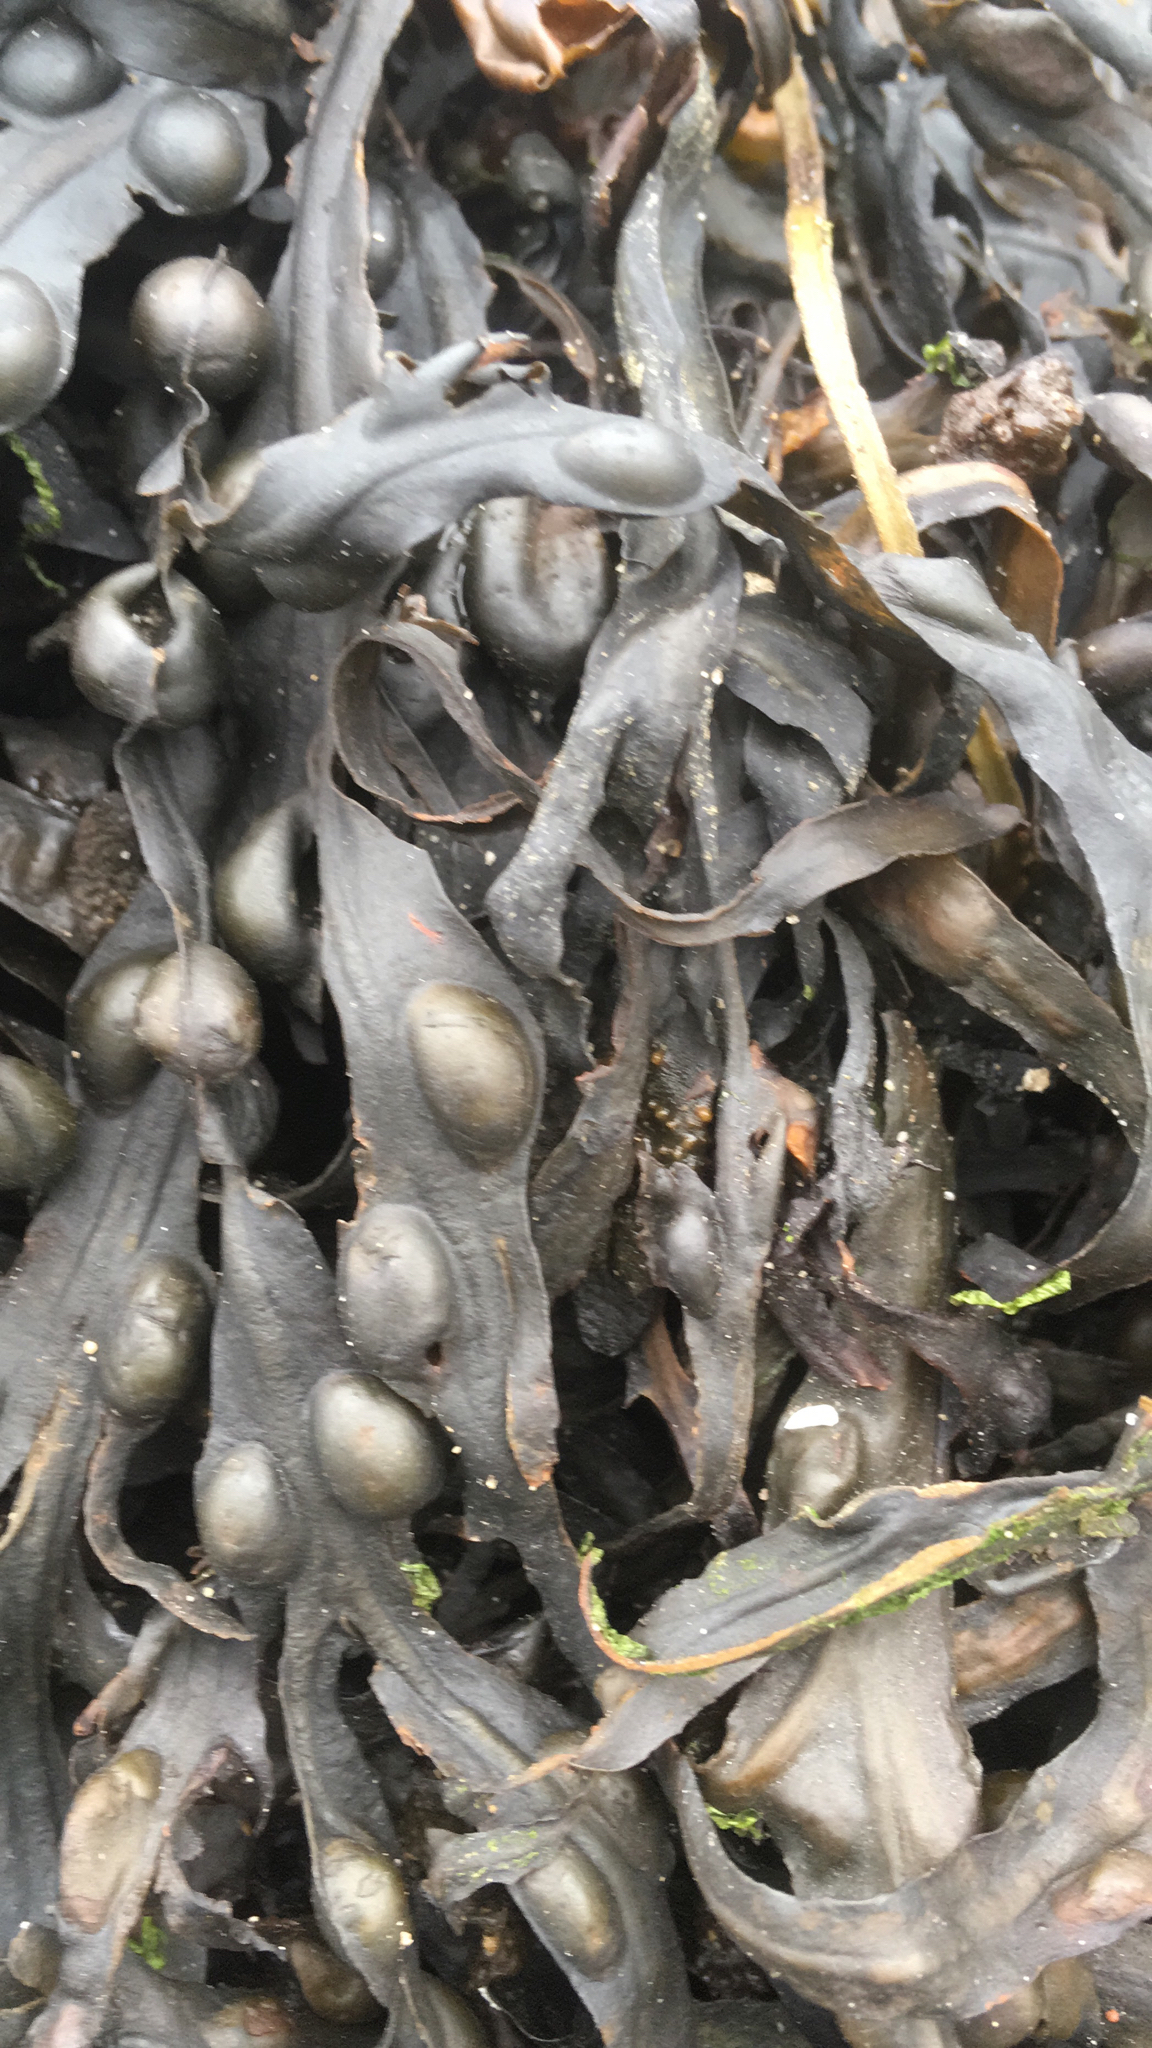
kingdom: Chromista
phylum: Ochrophyta
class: Phaeophyceae
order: Fucales
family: Fucaceae
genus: Fucus
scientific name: Fucus vesiculosus
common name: Bladder wrack
